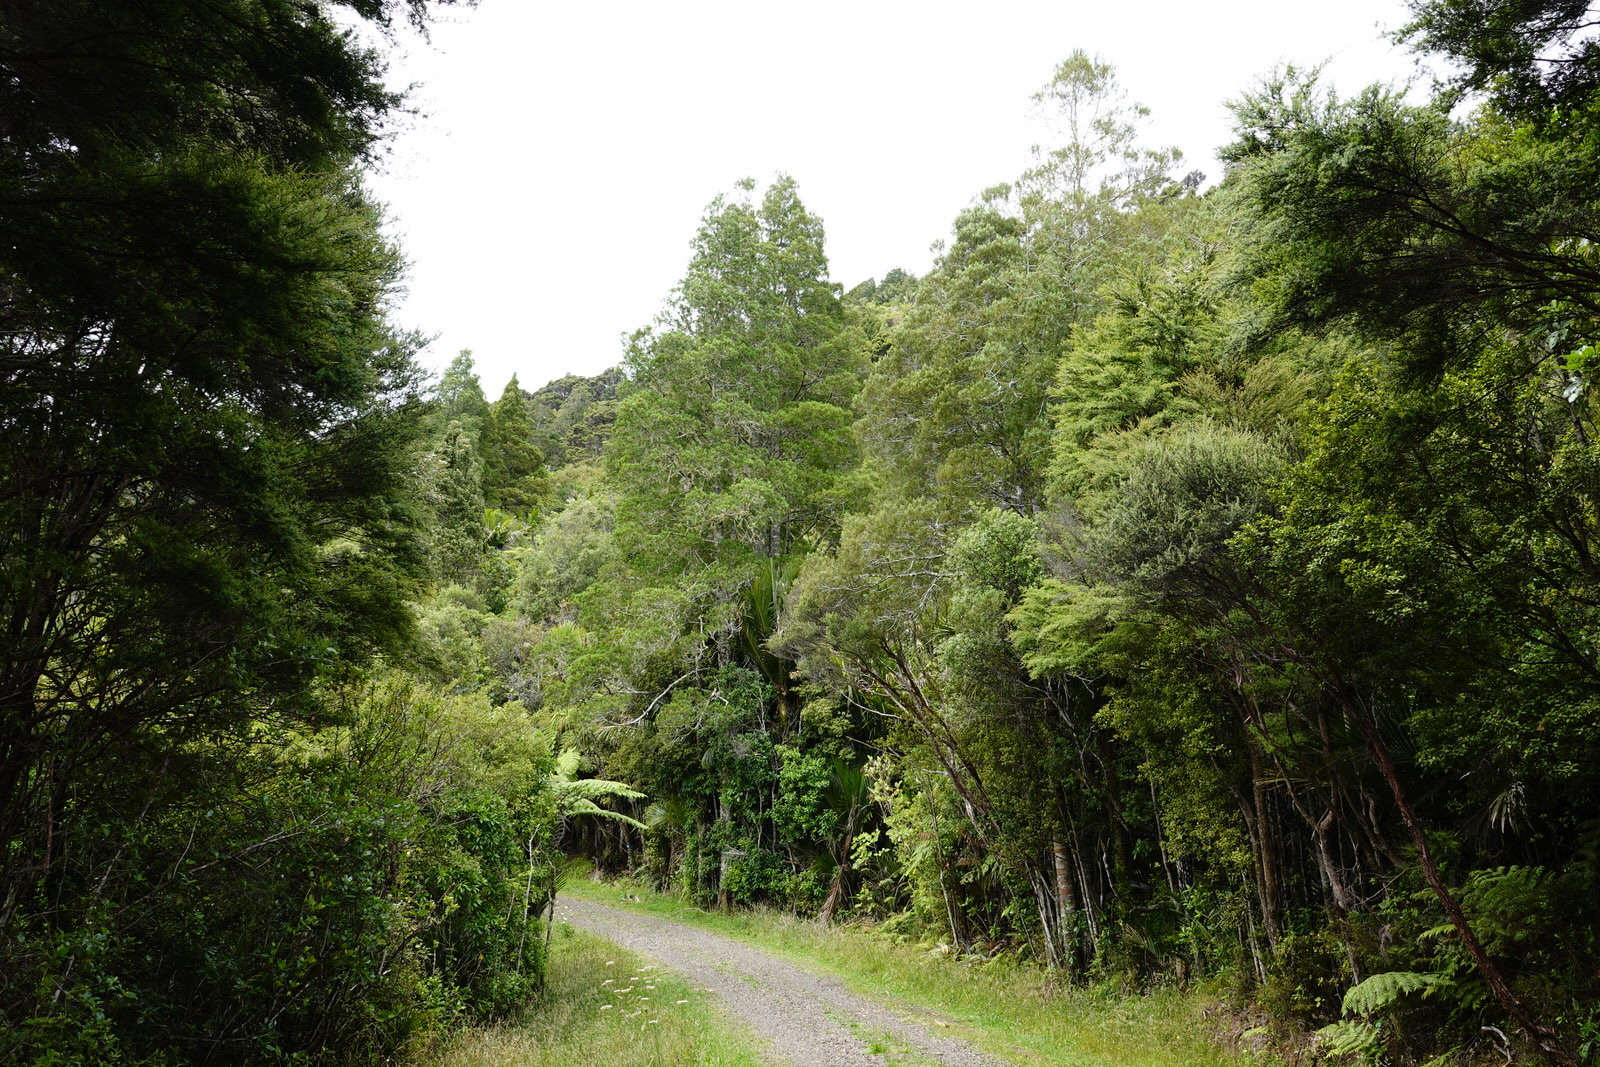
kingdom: Plantae
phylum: Tracheophyta
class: Pinopsida
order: Pinales
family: Podocarpaceae
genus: Dacrycarpus
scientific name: Dacrycarpus dacrydioides
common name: White pine
